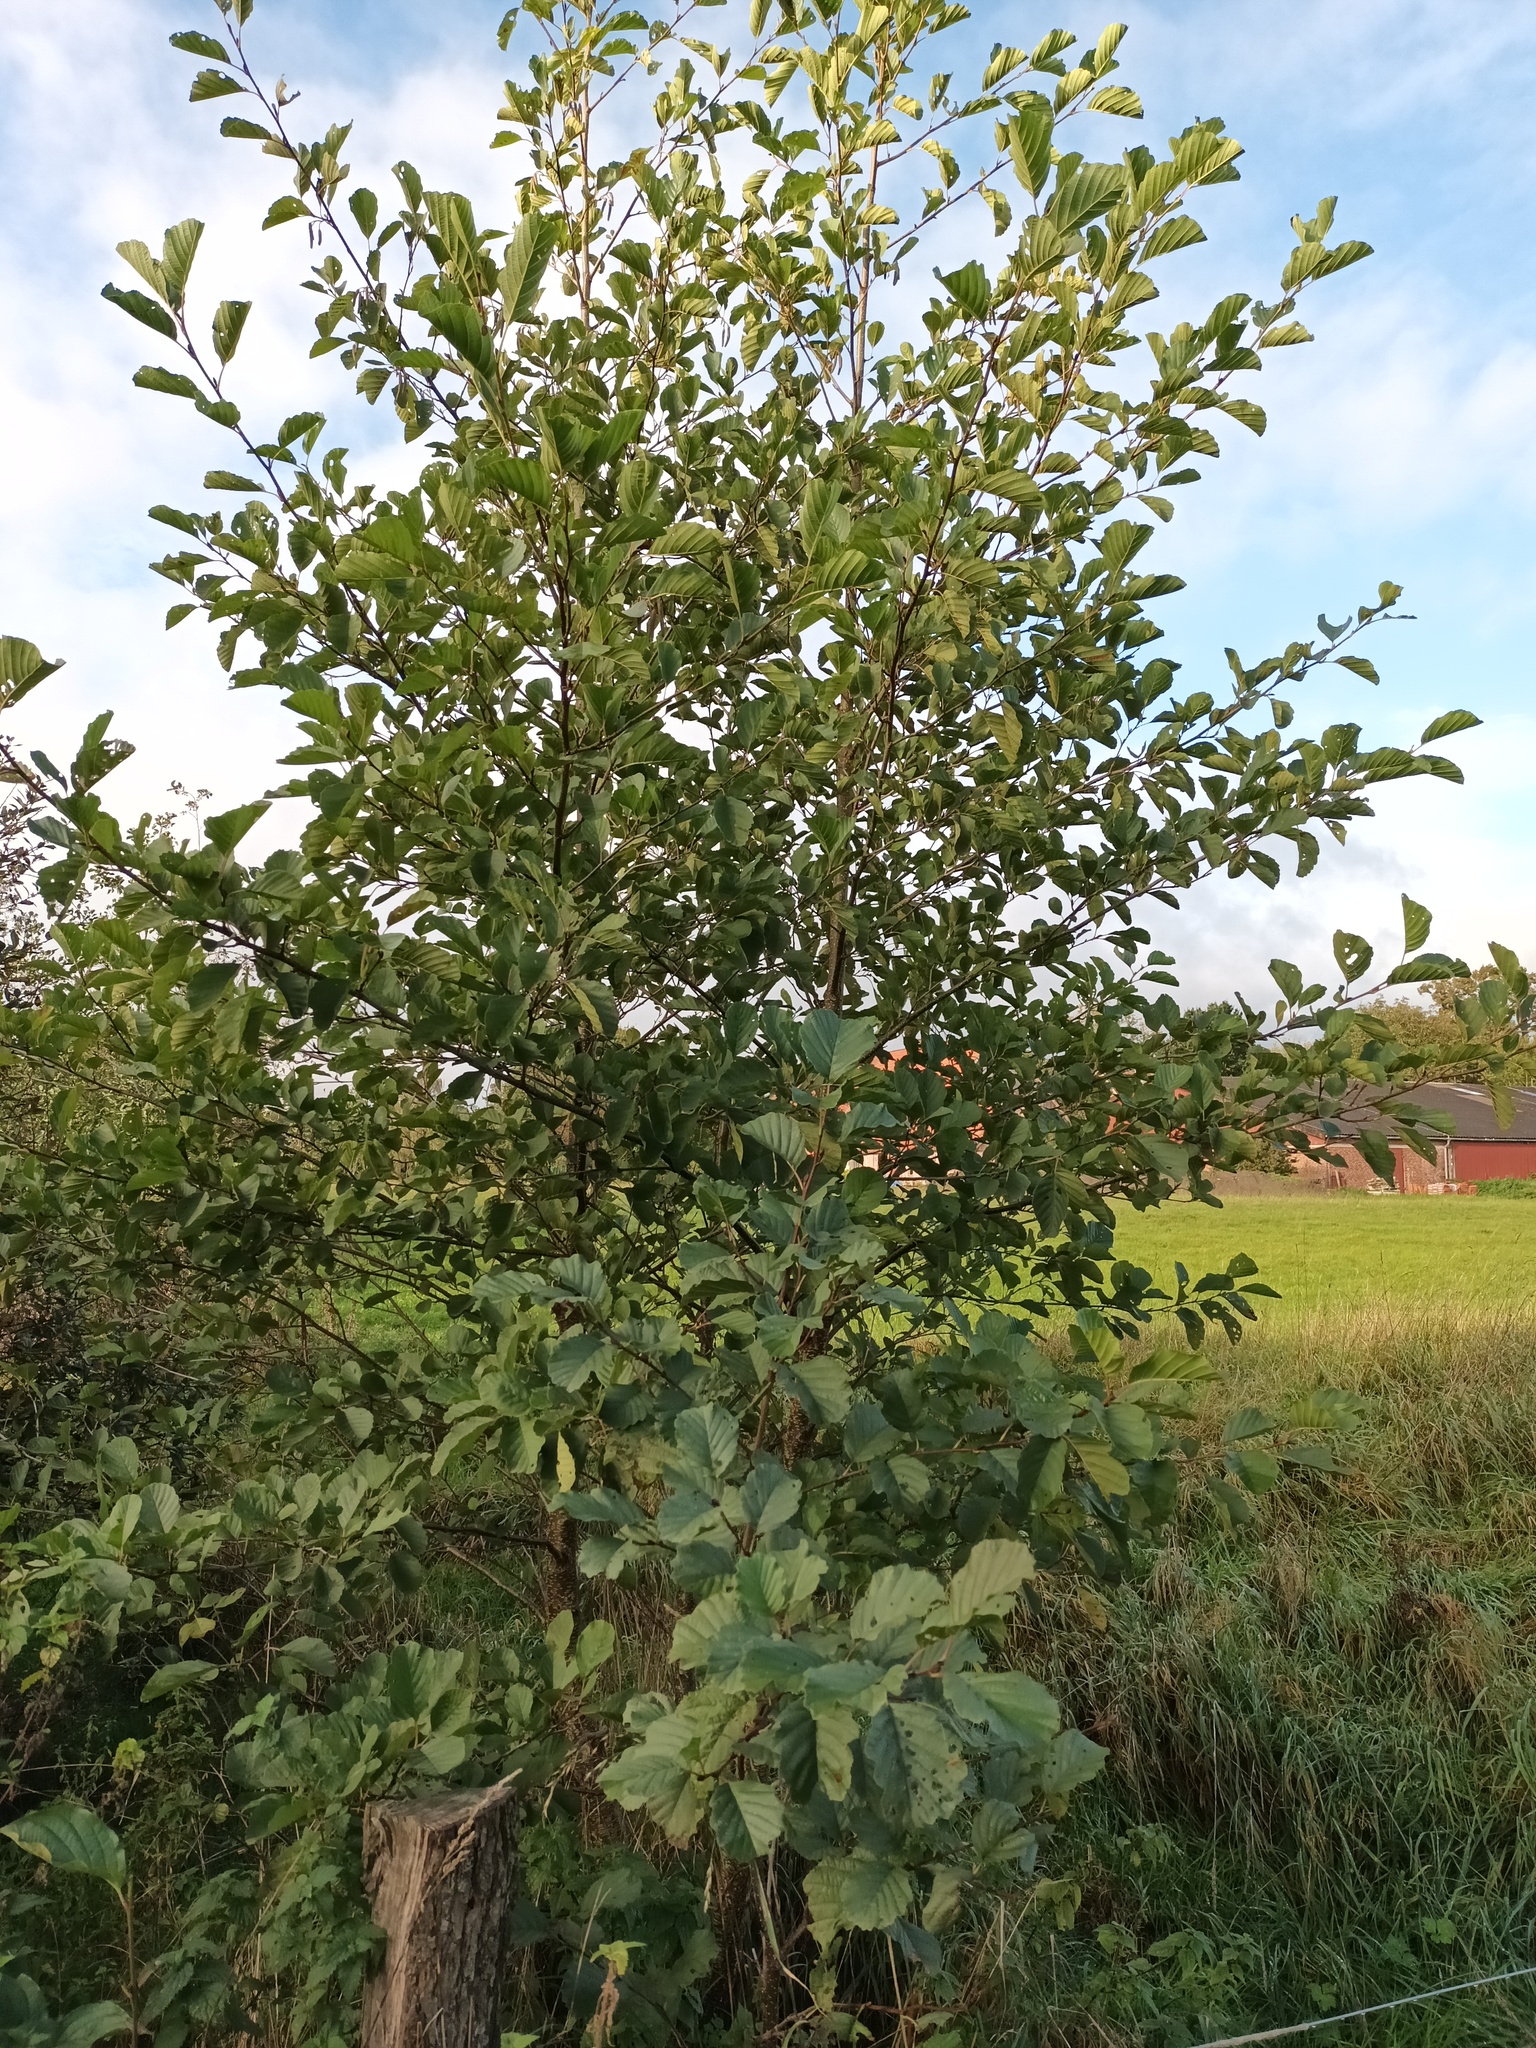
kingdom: Plantae
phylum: Tracheophyta
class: Magnoliopsida
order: Fagales
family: Betulaceae
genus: Alnus
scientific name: Alnus glutinosa
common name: Black alder
